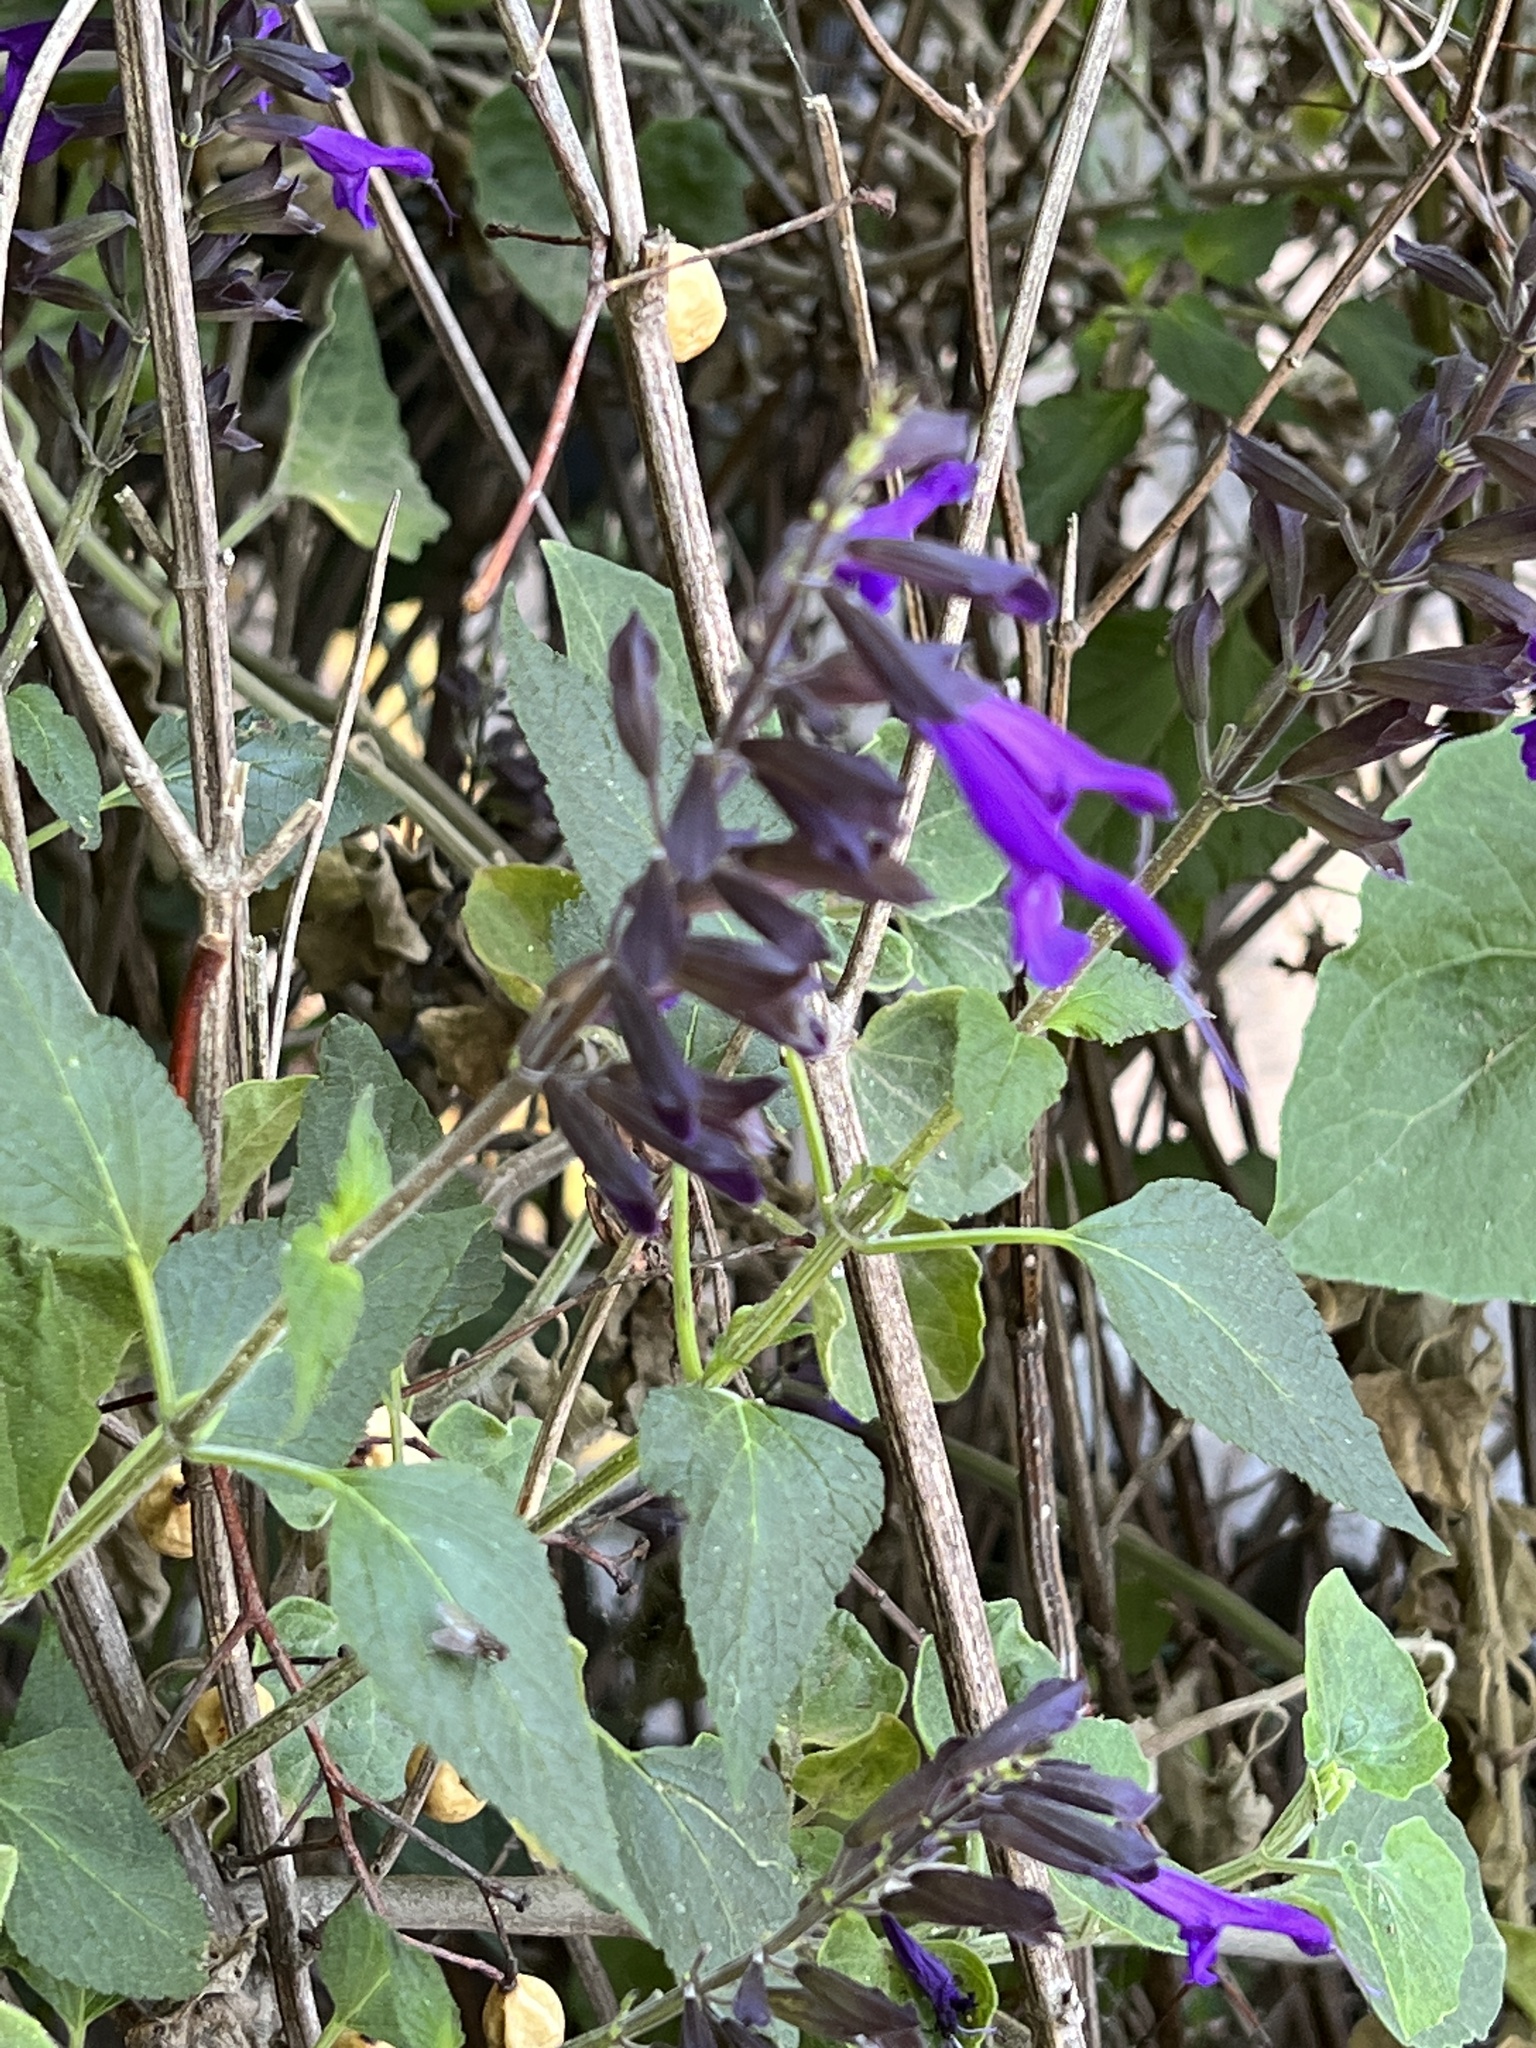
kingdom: Plantae
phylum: Tracheophyta
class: Magnoliopsida
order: Lamiales
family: Lamiaceae
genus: Salvia
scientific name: Salvia guaranitica
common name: Anise-scented sage
